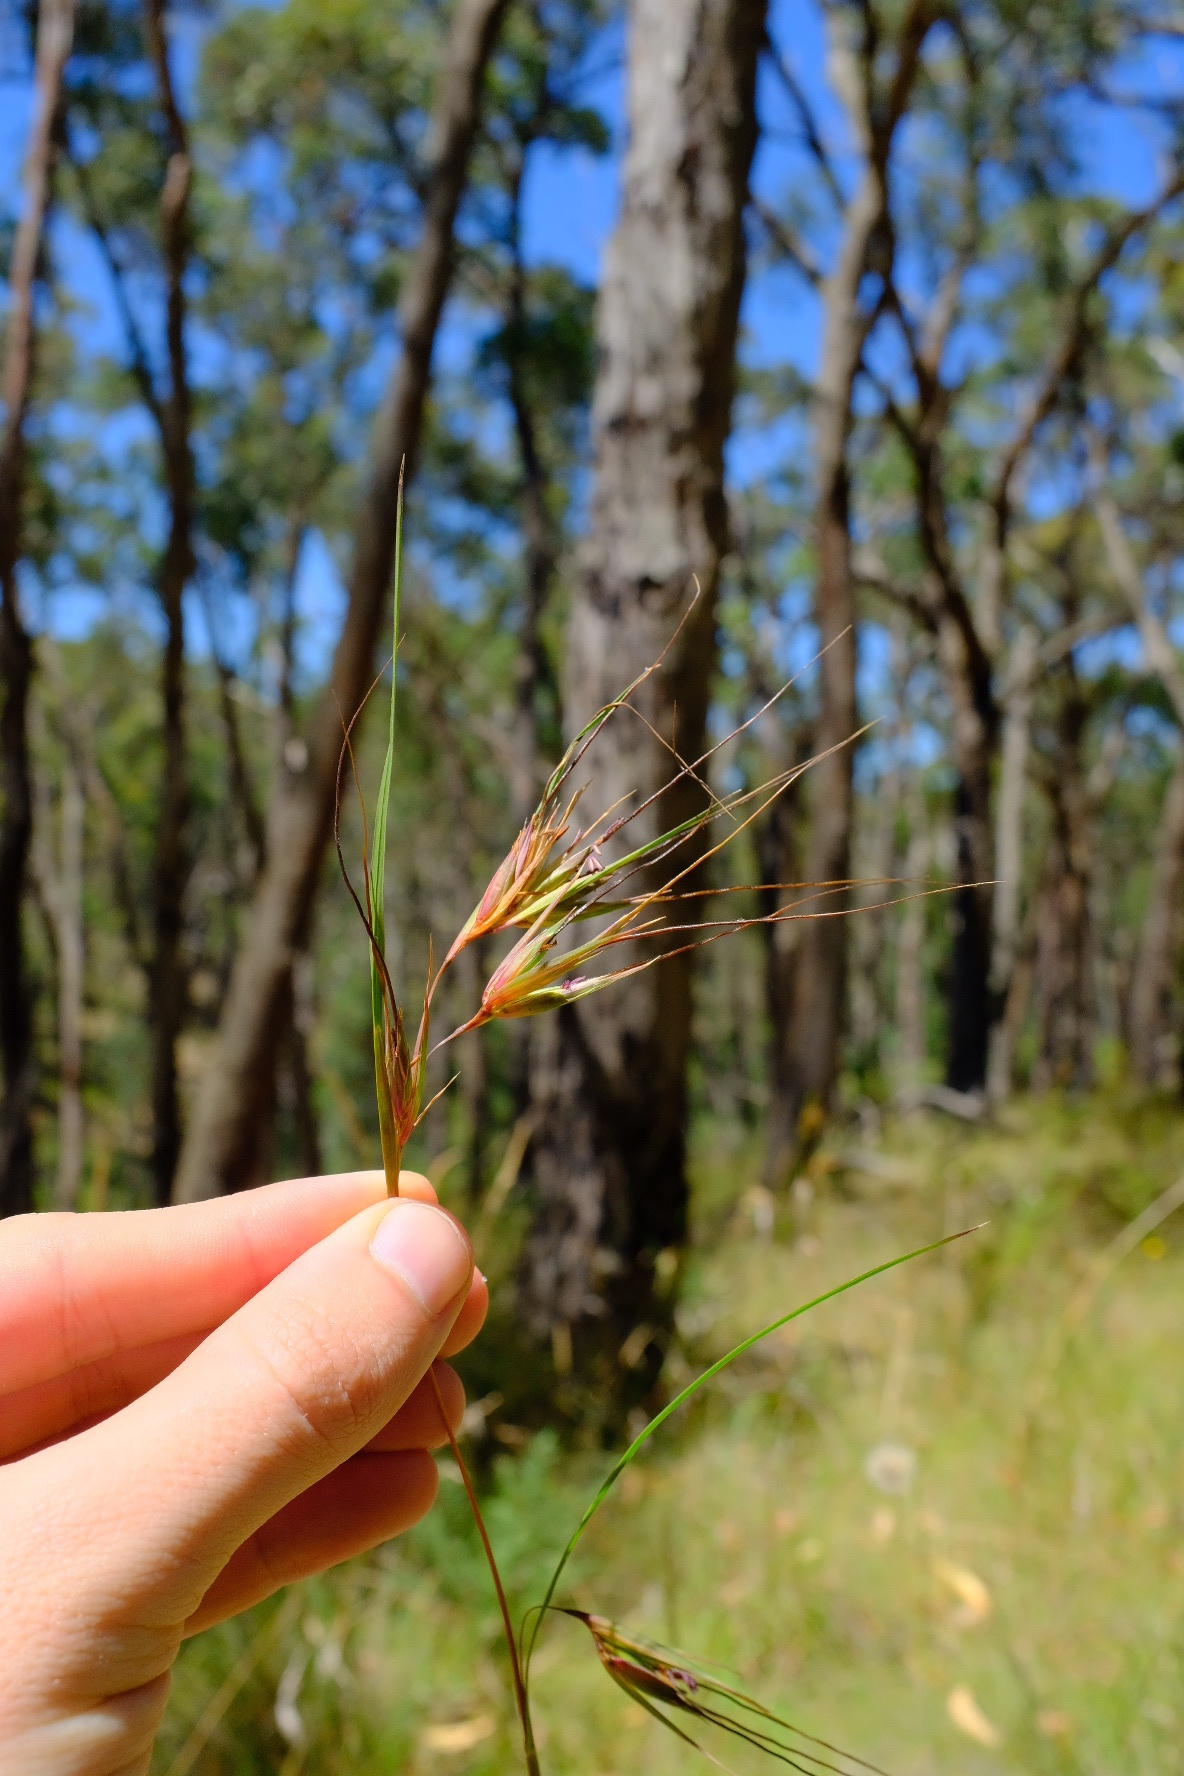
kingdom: Plantae
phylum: Tracheophyta
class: Liliopsida
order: Poales
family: Poaceae
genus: Themeda
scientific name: Themeda triandra
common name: Kangaroo grass
